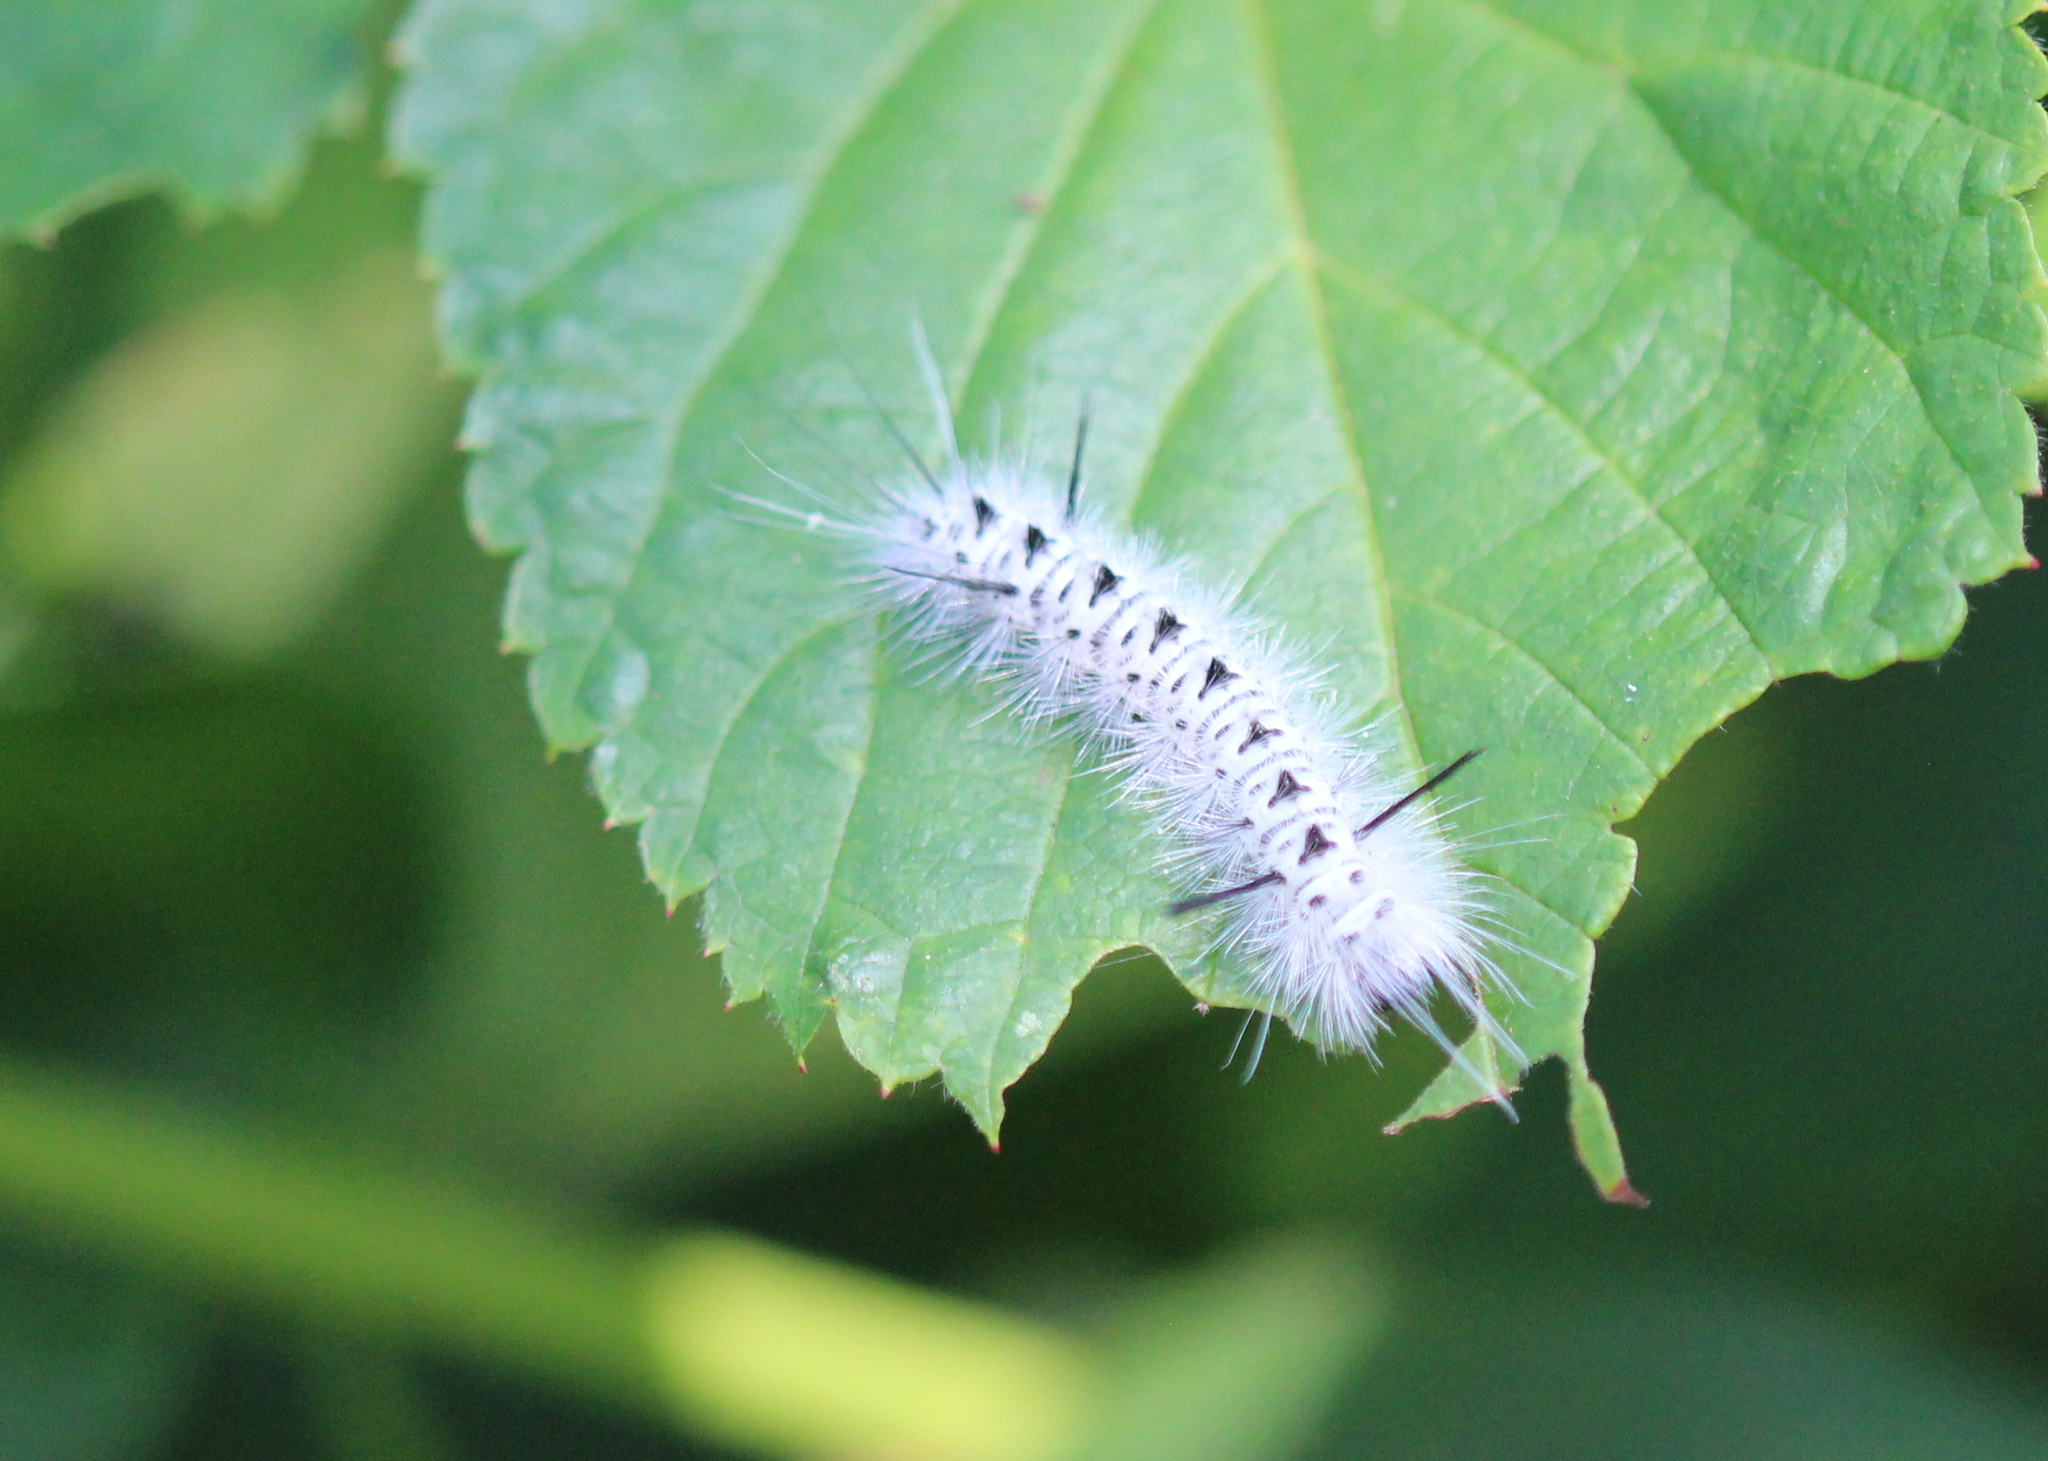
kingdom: Animalia
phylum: Arthropoda
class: Insecta
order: Lepidoptera
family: Erebidae
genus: Lophocampa
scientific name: Lophocampa caryae
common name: Hickory tussock moth
